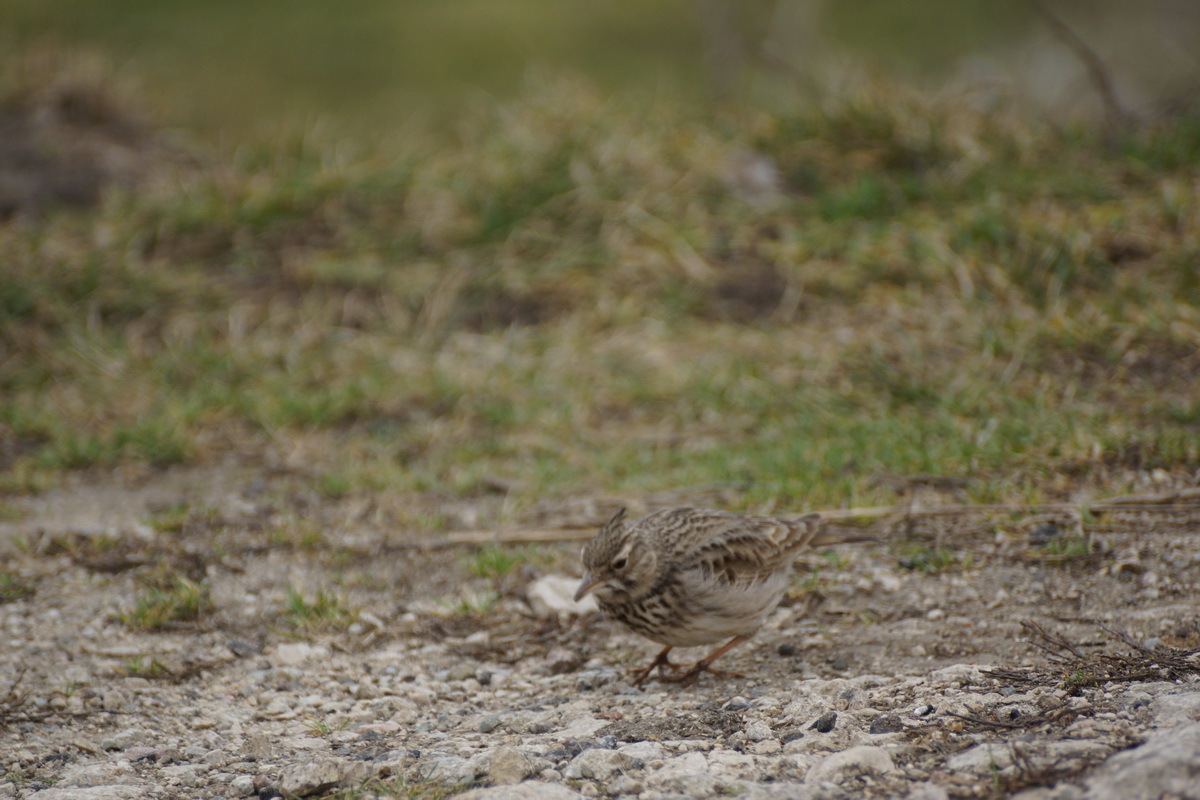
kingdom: Animalia
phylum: Chordata
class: Aves
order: Passeriformes
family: Alaudidae
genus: Galerida
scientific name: Galerida cristata
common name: Crested lark
